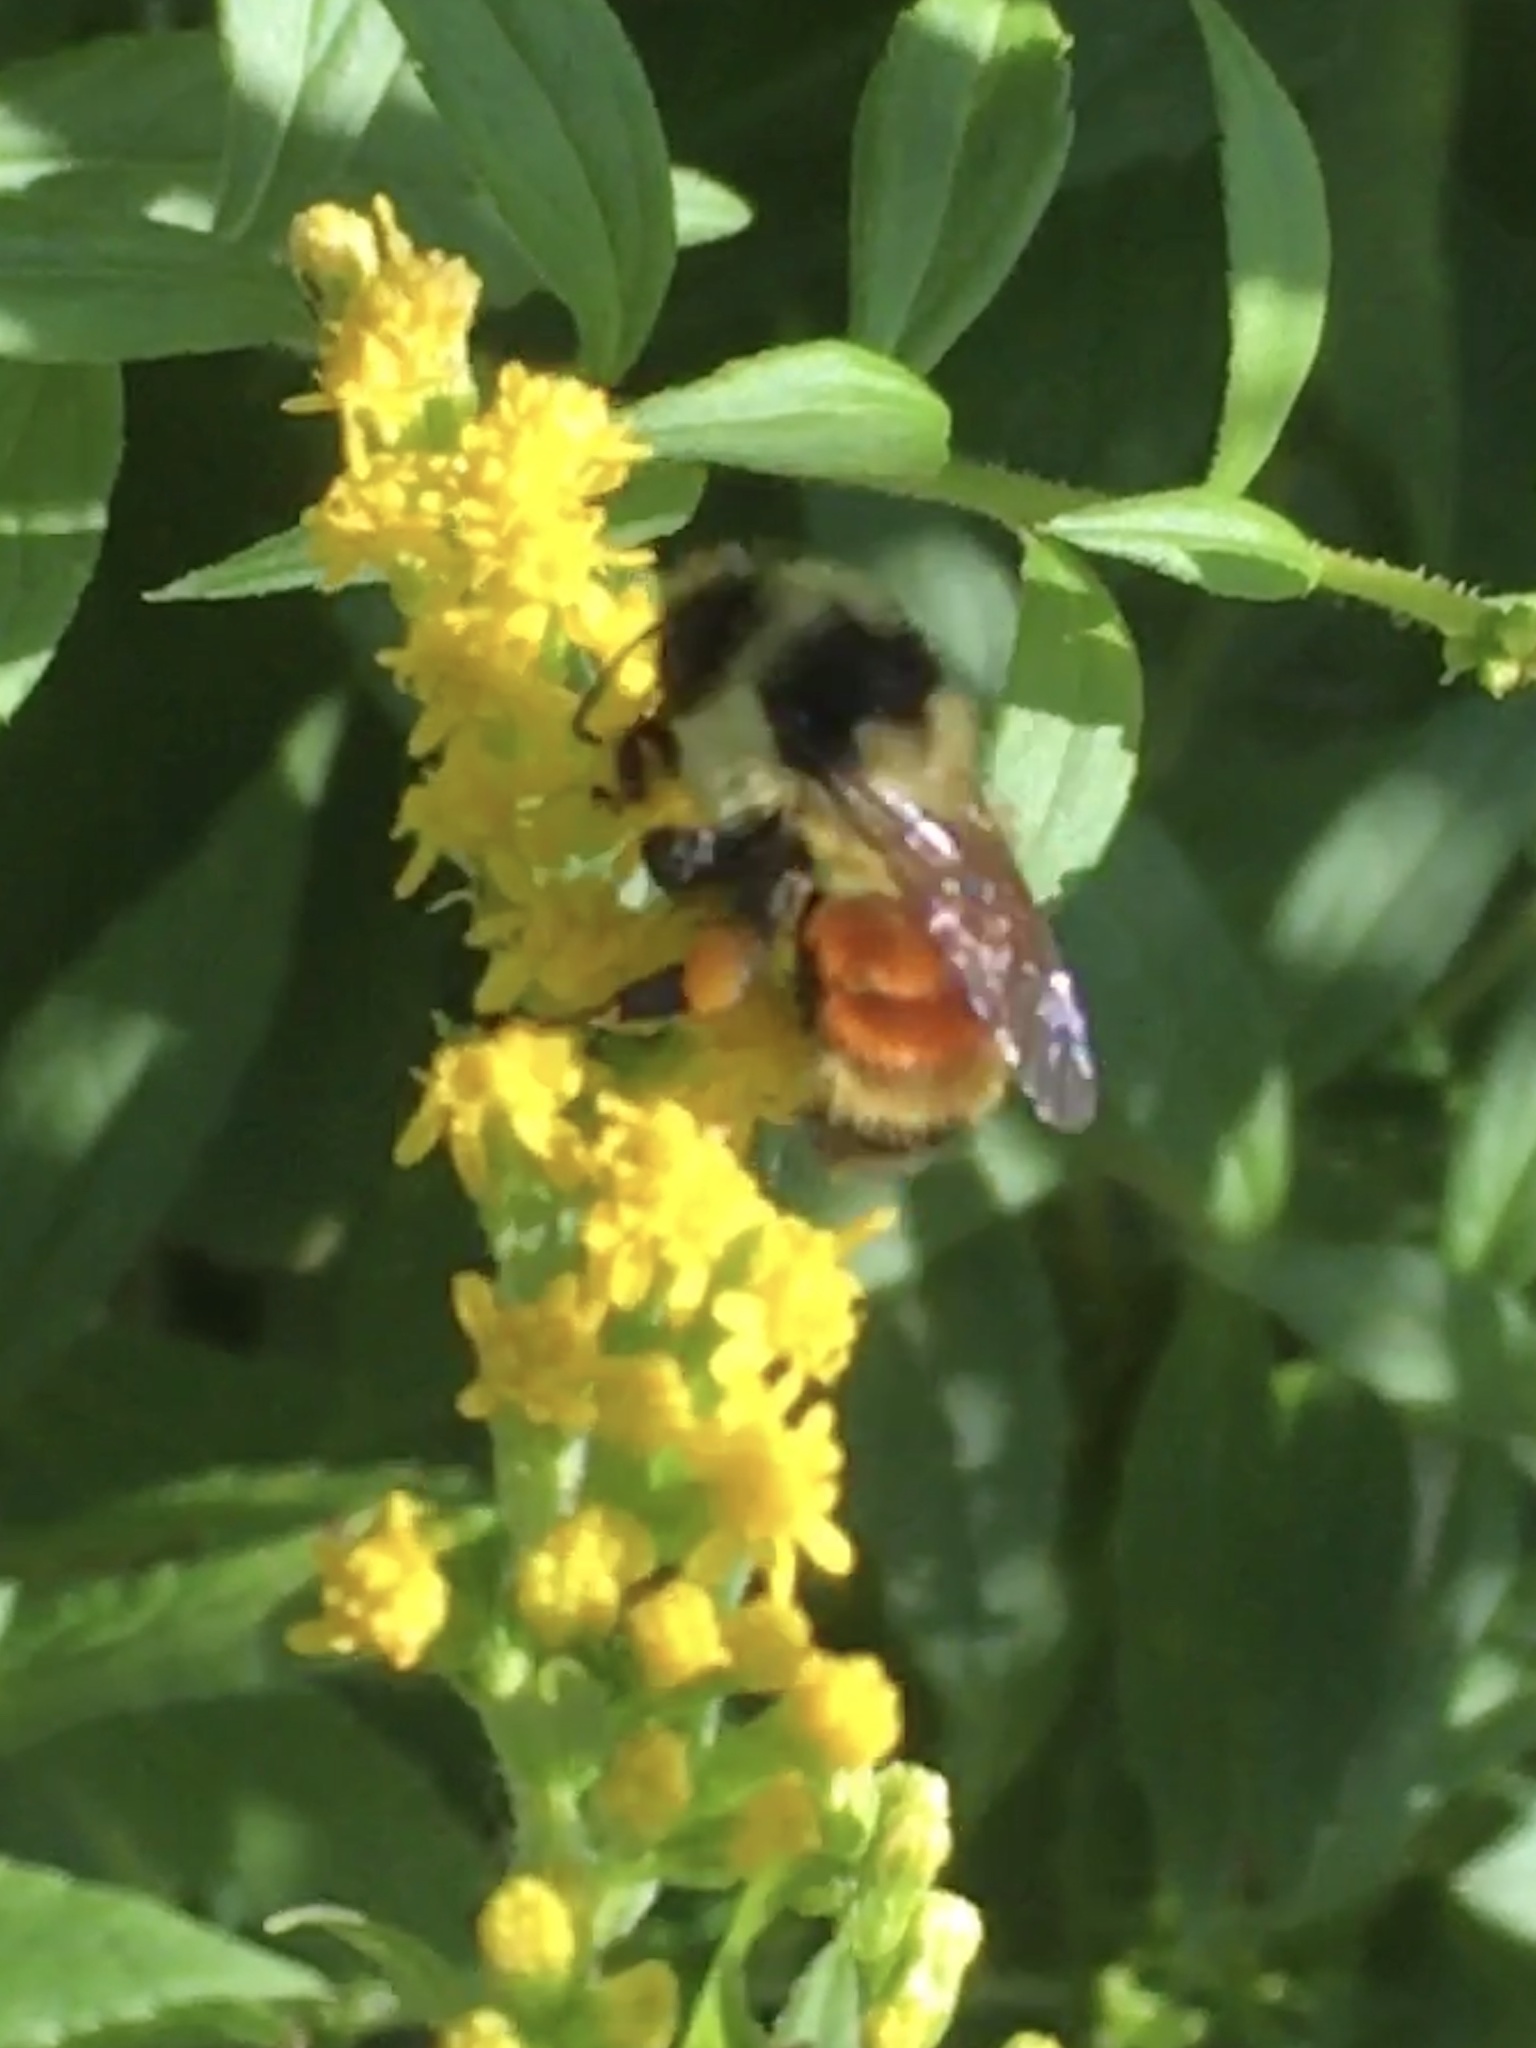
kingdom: Animalia
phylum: Arthropoda
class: Insecta
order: Hymenoptera
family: Apidae
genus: Bombus
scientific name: Bombus ternarius
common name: Tri-colored bumble bee
